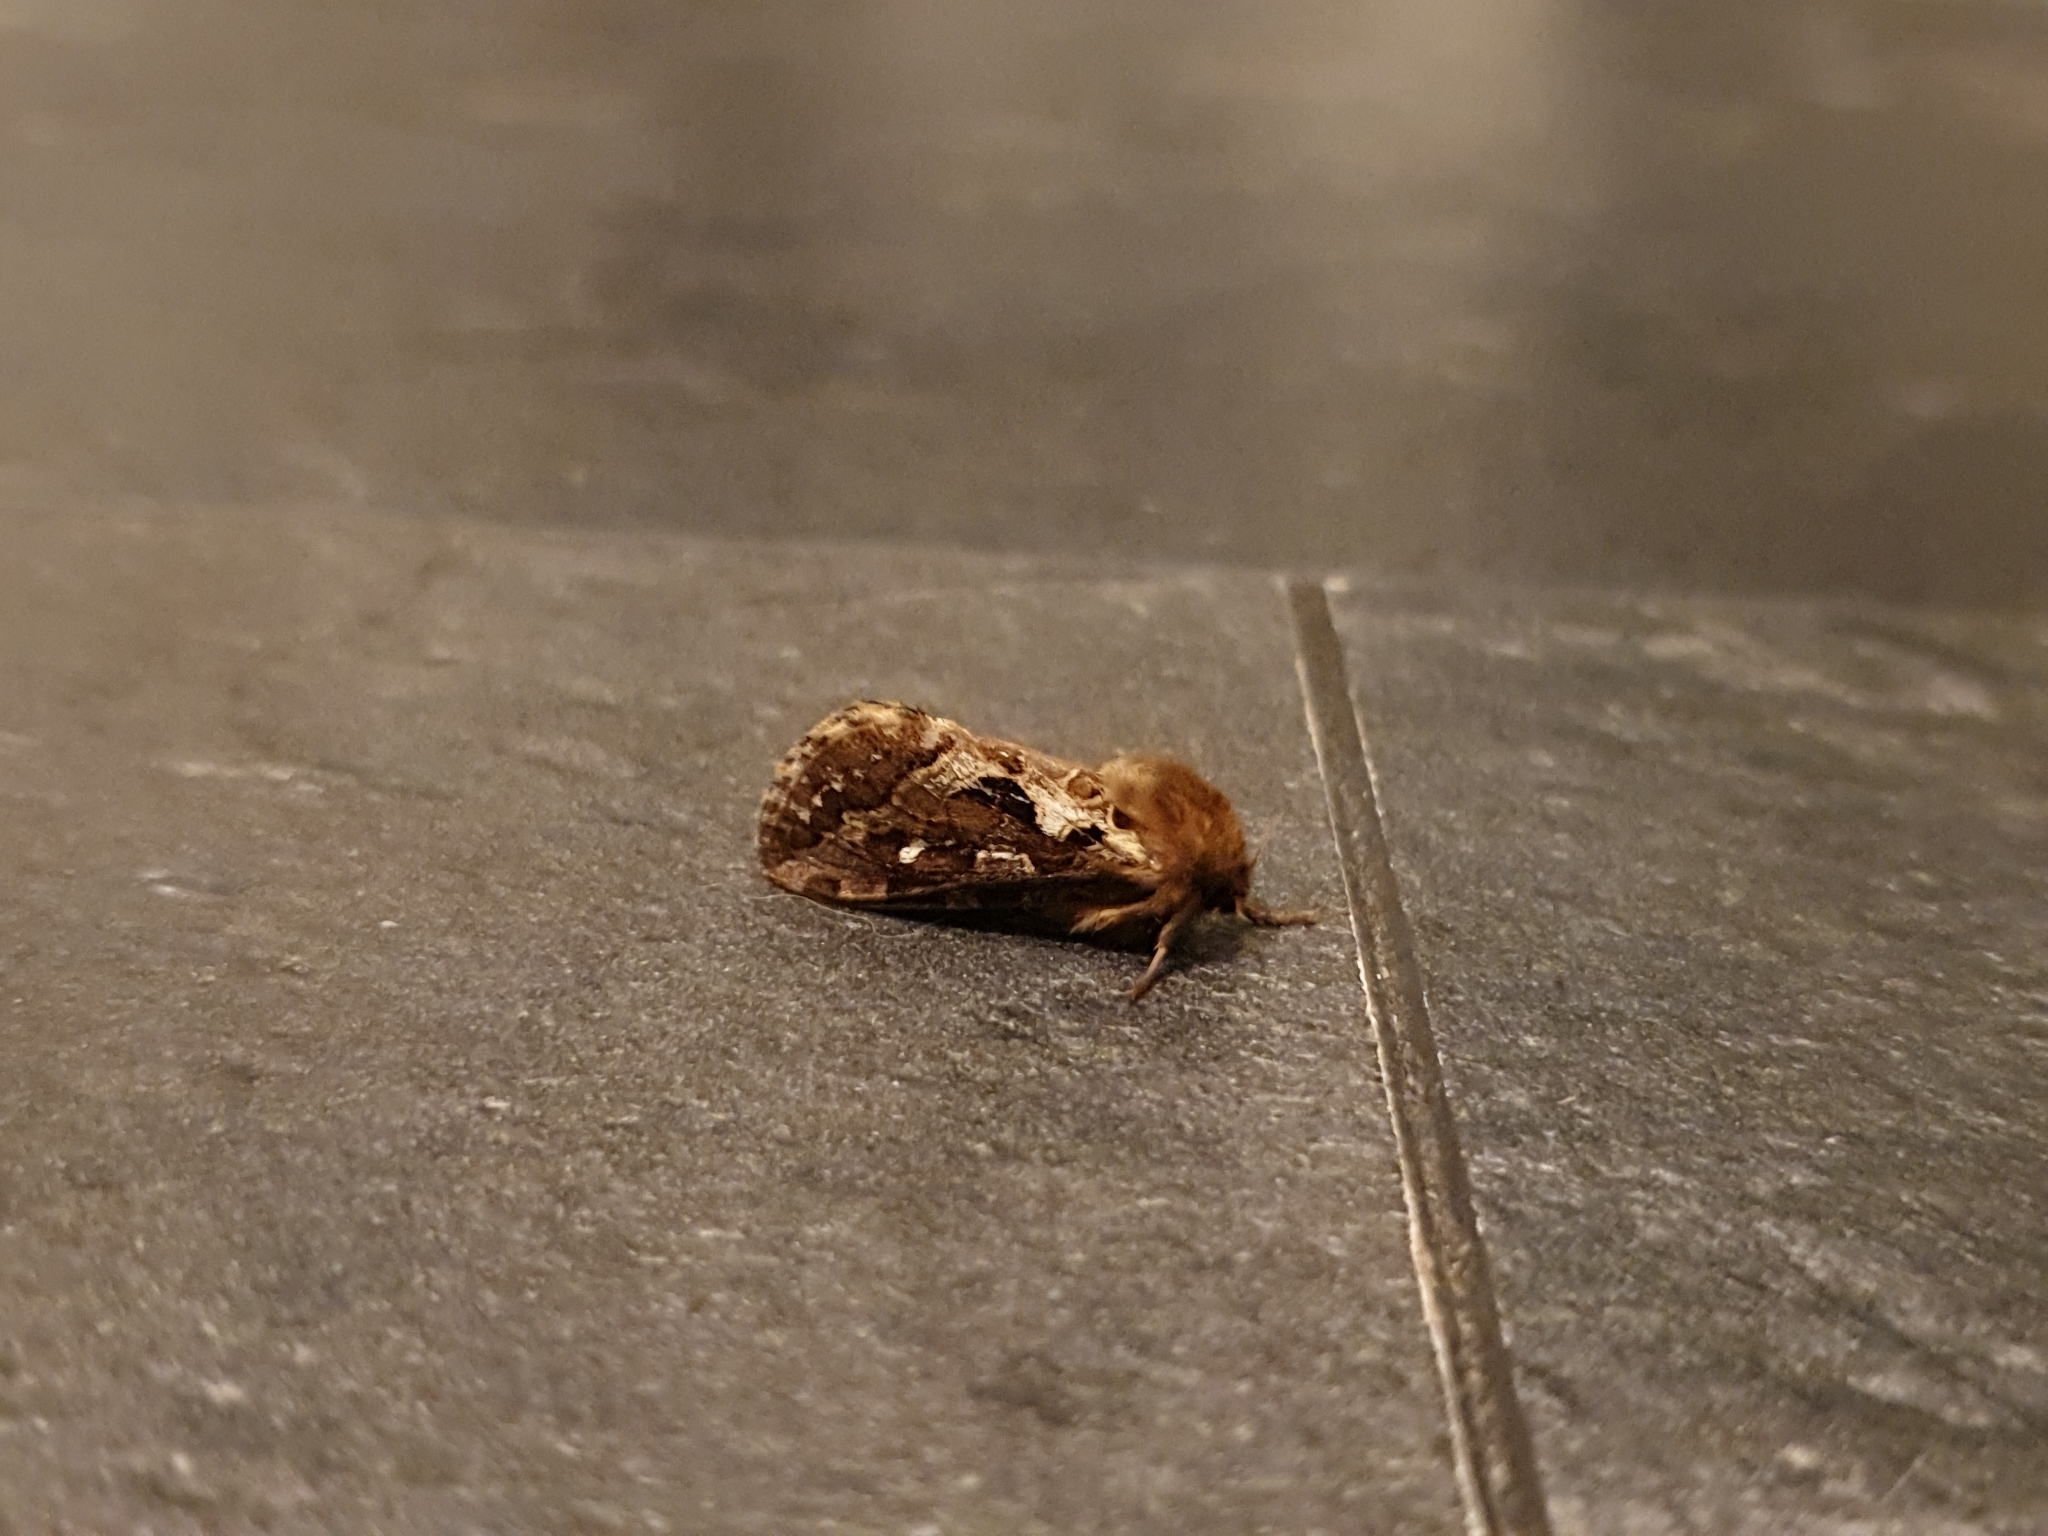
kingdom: Animalia
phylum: Arthropoda
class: Insecta
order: Lepidoptera
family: Hepialidae
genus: Korscheltellus
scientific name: Korscheltellus fusconebulosus
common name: Map-winged swift
